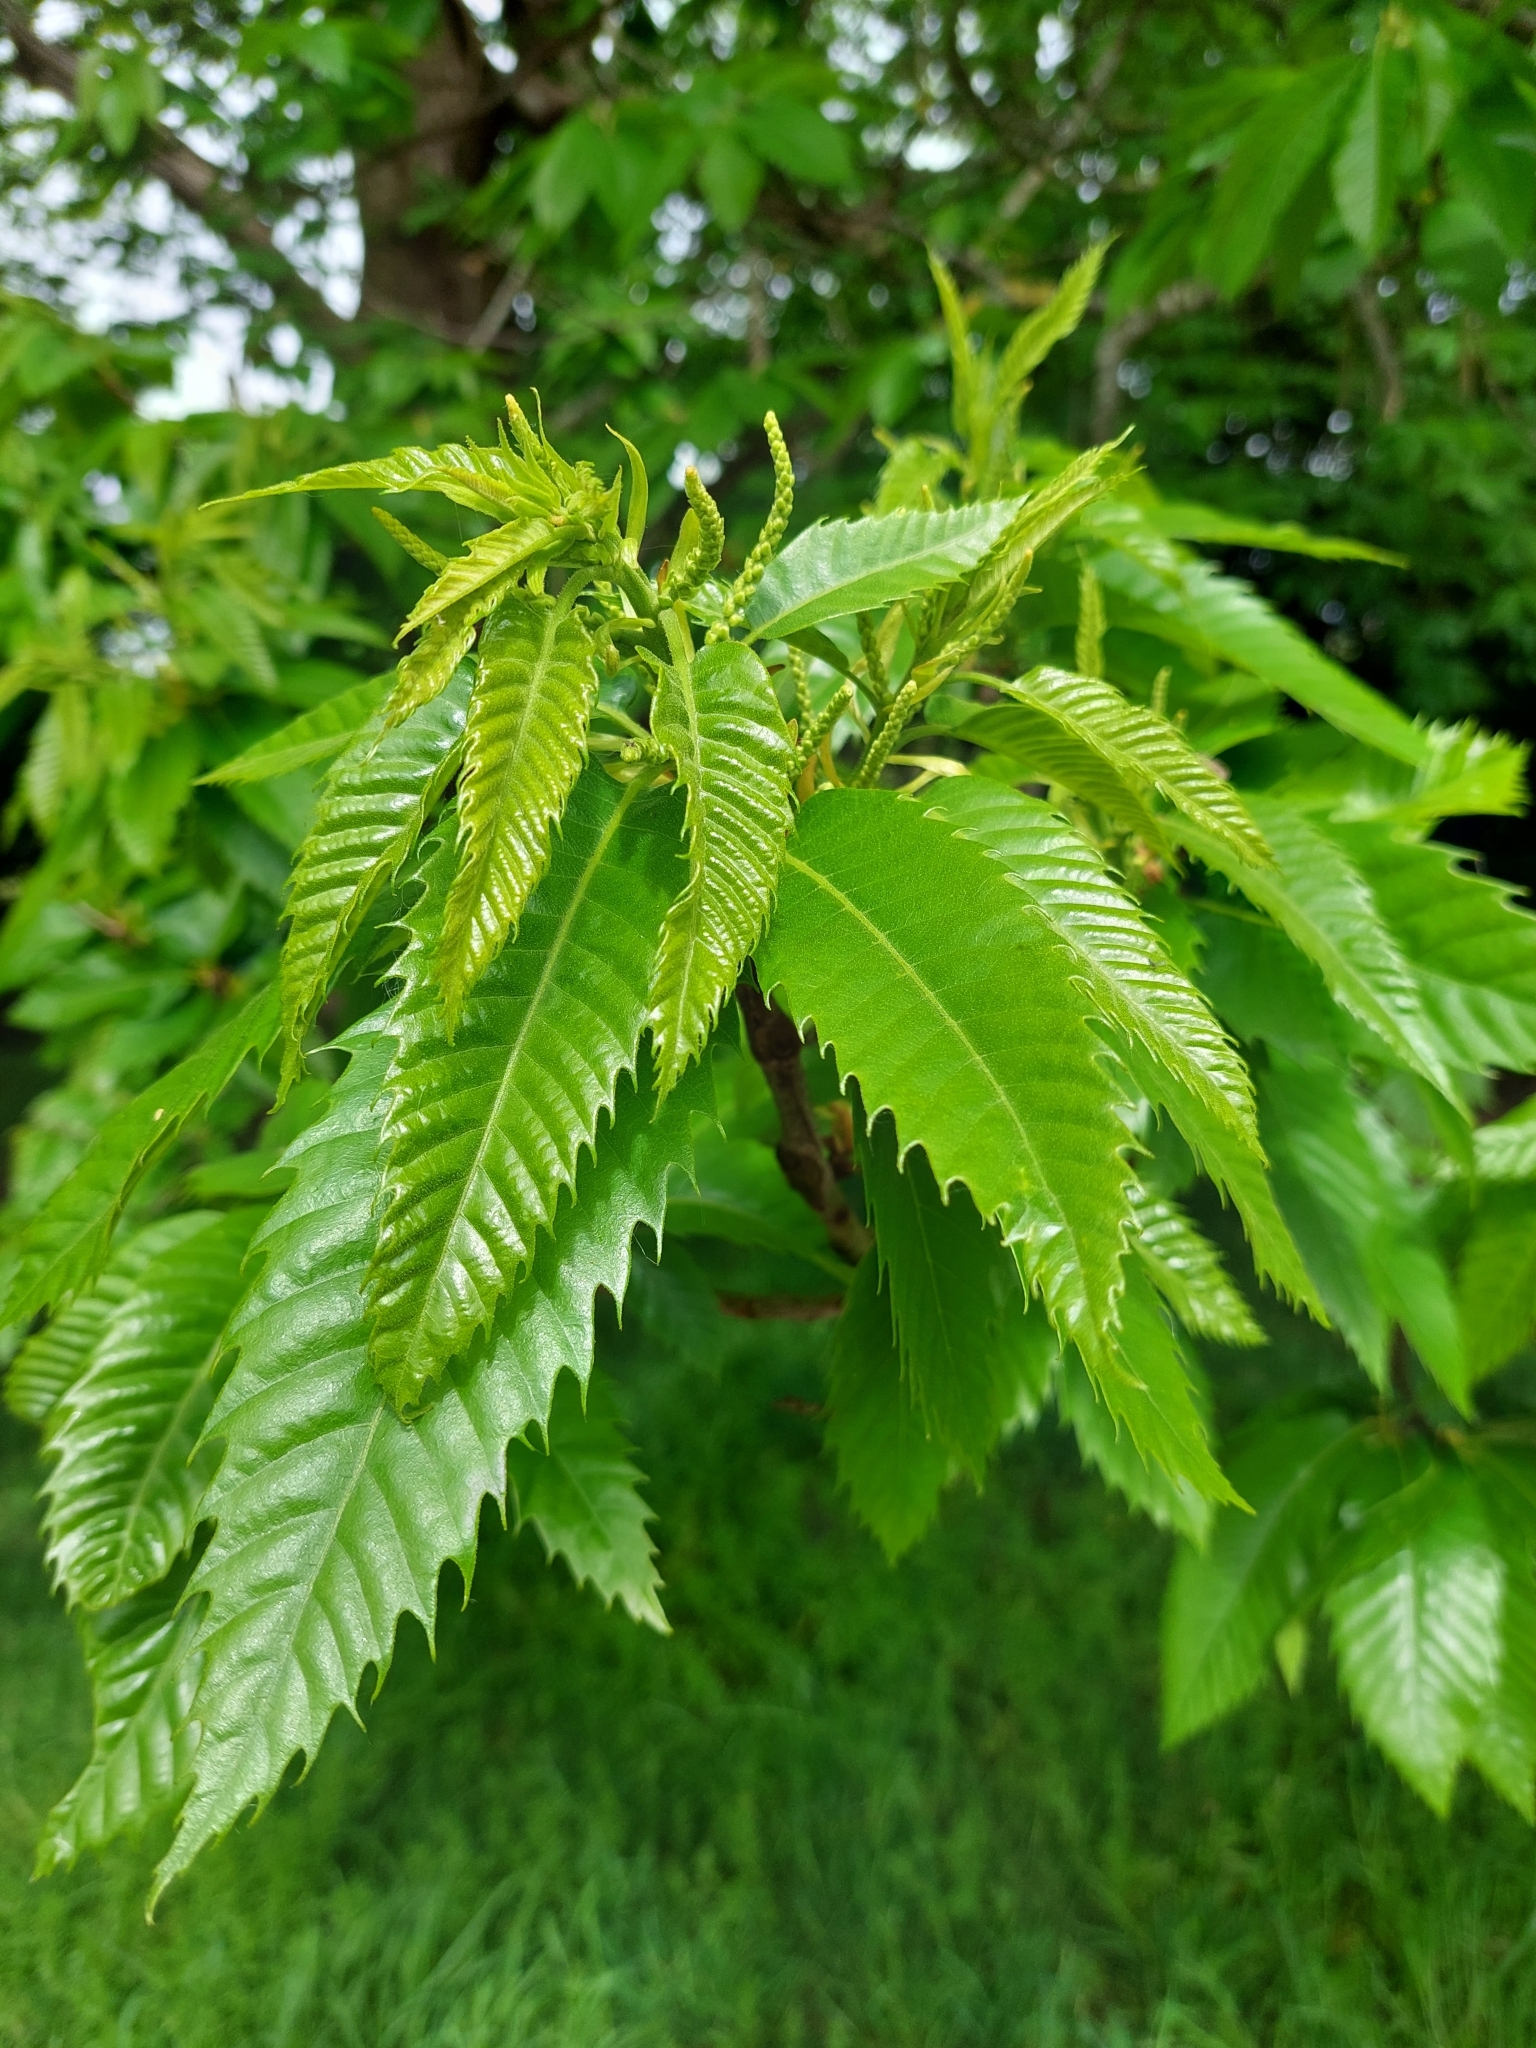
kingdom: Plantae
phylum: Tracheophyta
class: Magnoliopsida
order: Fagales
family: Fagaceae
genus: Castanea
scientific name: Castanea sativa
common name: Sweet chestnut
